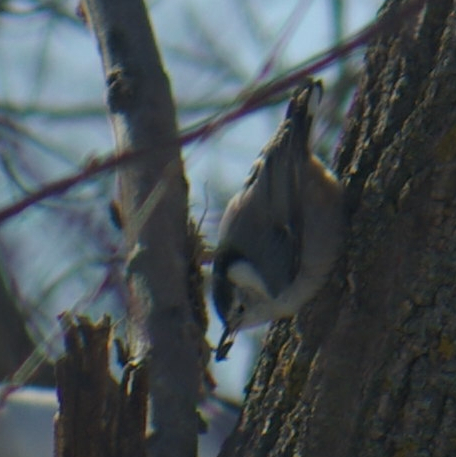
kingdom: Animalia
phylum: Chordata
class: Aves
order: Passeriformes
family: Sittidae
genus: Sitta
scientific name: Sitta carolinensis
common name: White-breasted nuthatch
